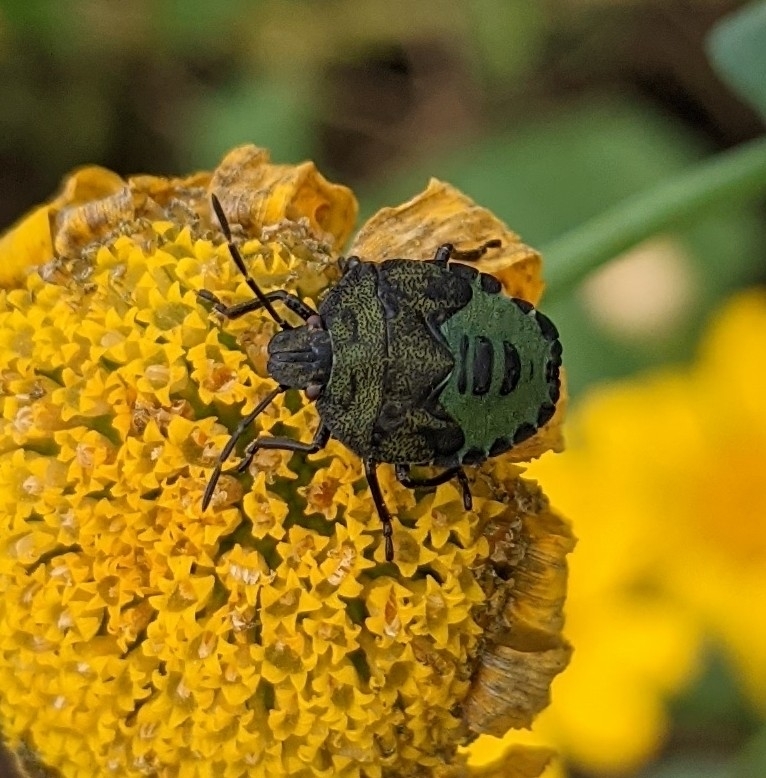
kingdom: Animalia
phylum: Arthropoda
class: Insecta
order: Hemiptera
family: Pentatomidae
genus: Palomena
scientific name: Palomena prasina
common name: Green shieldbug
